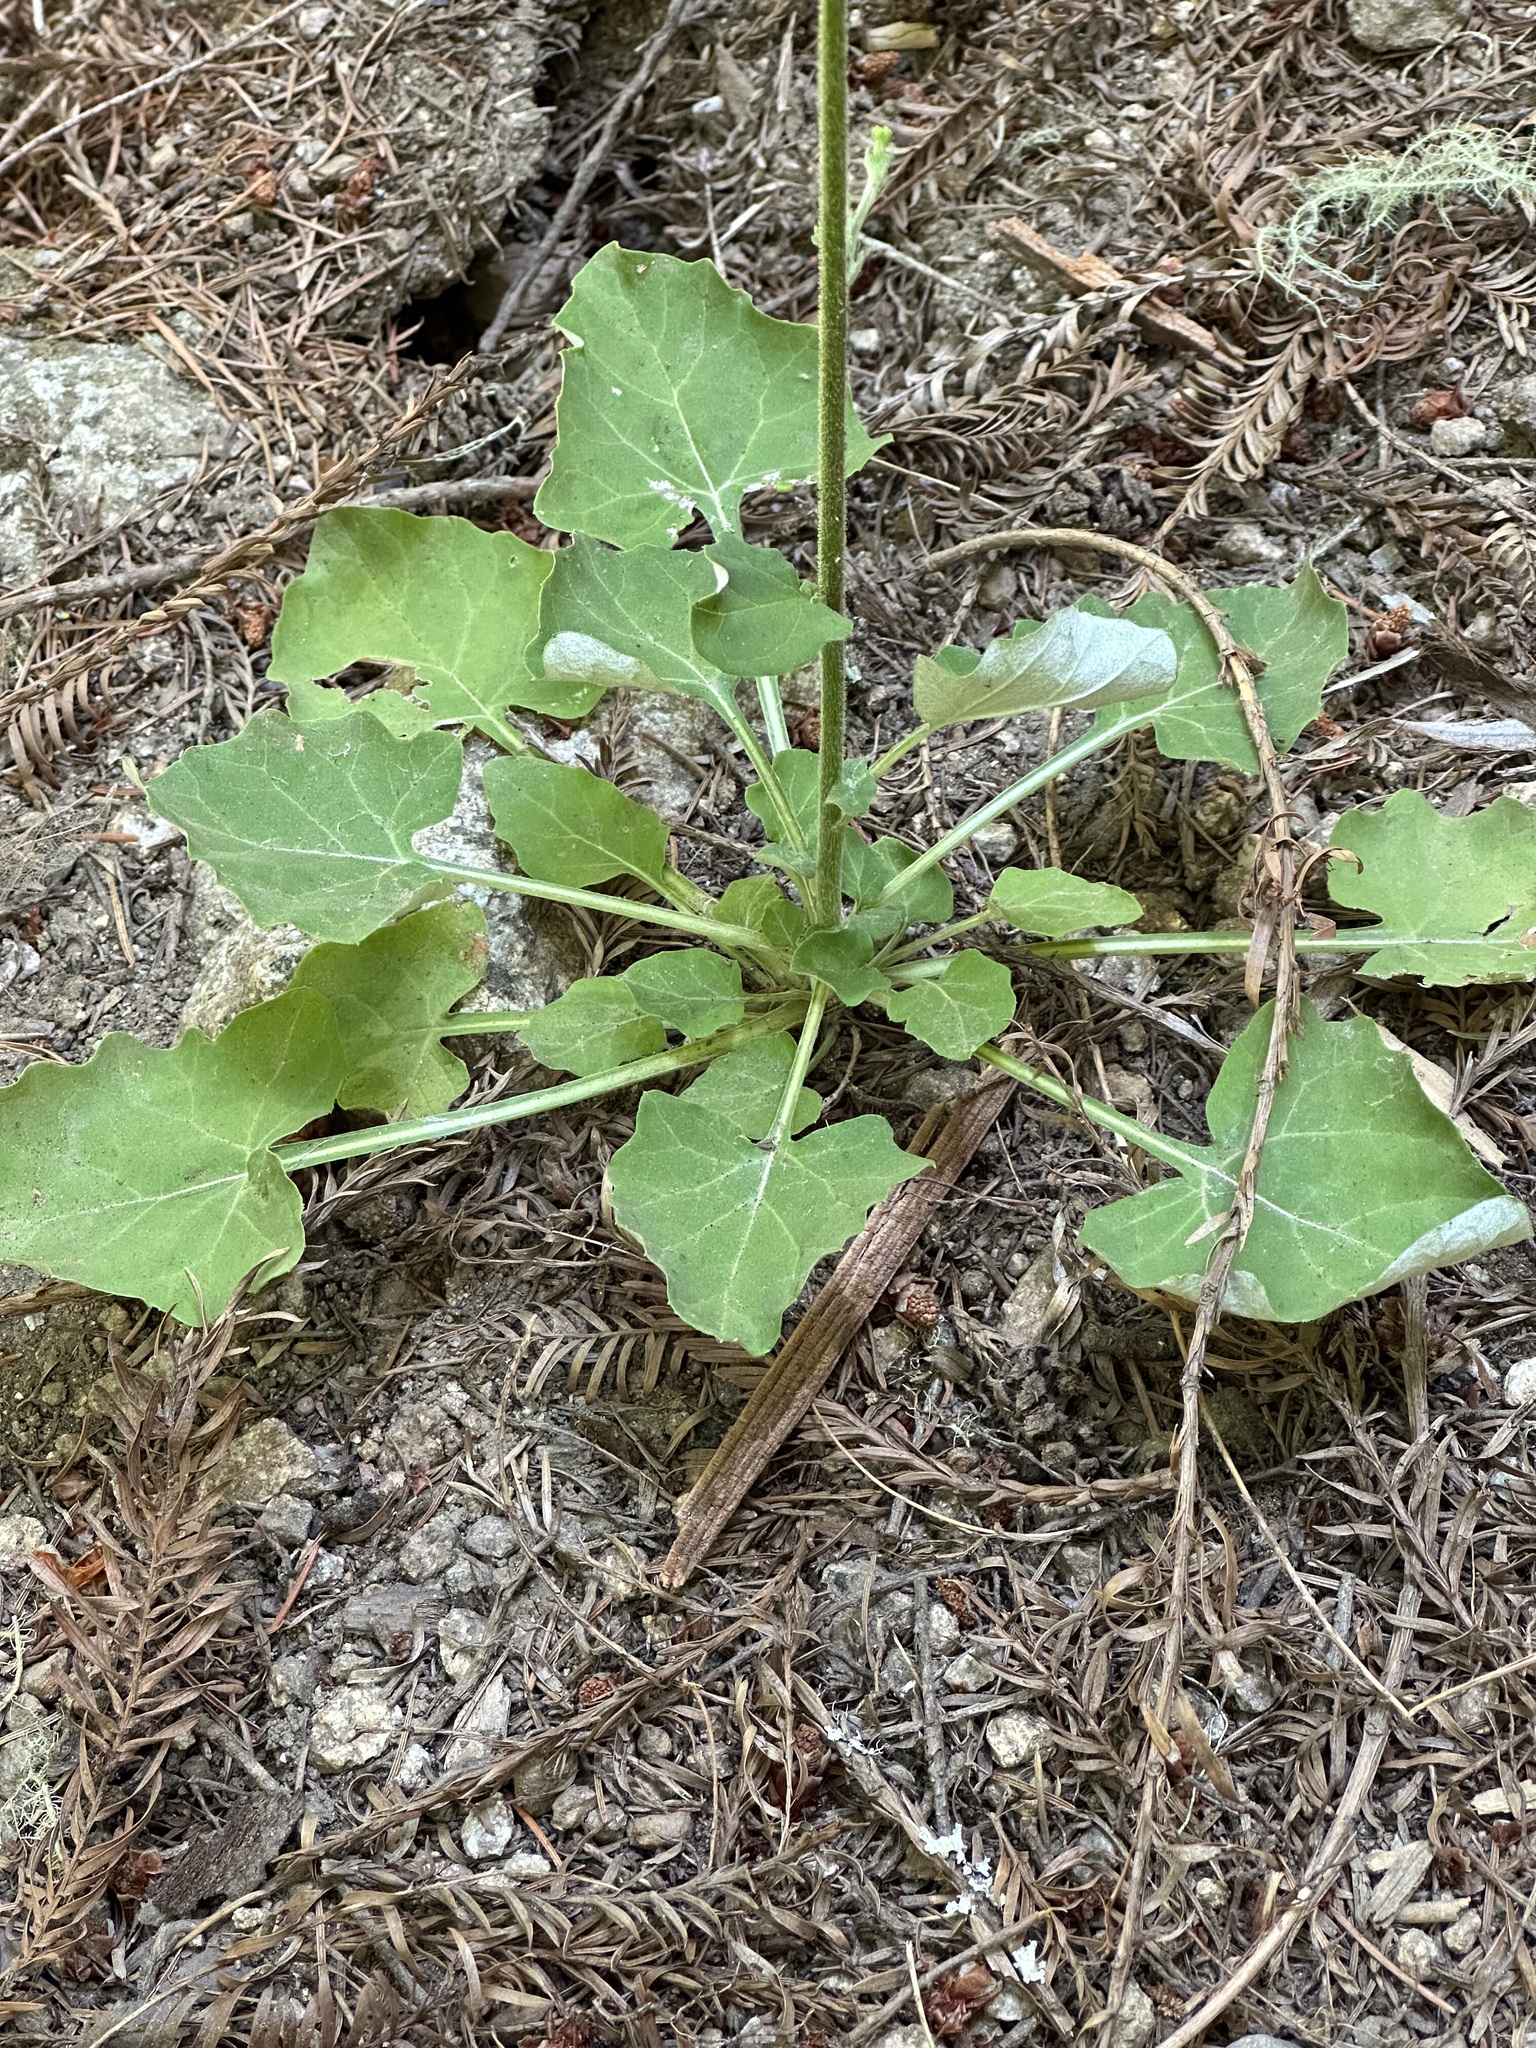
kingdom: Plantae
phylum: Tracheophyta
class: Magnoliopsida
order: Asterales
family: Asteraceae
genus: Adenocaulon
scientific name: Adenocaulon bicolor
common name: Trailplant
